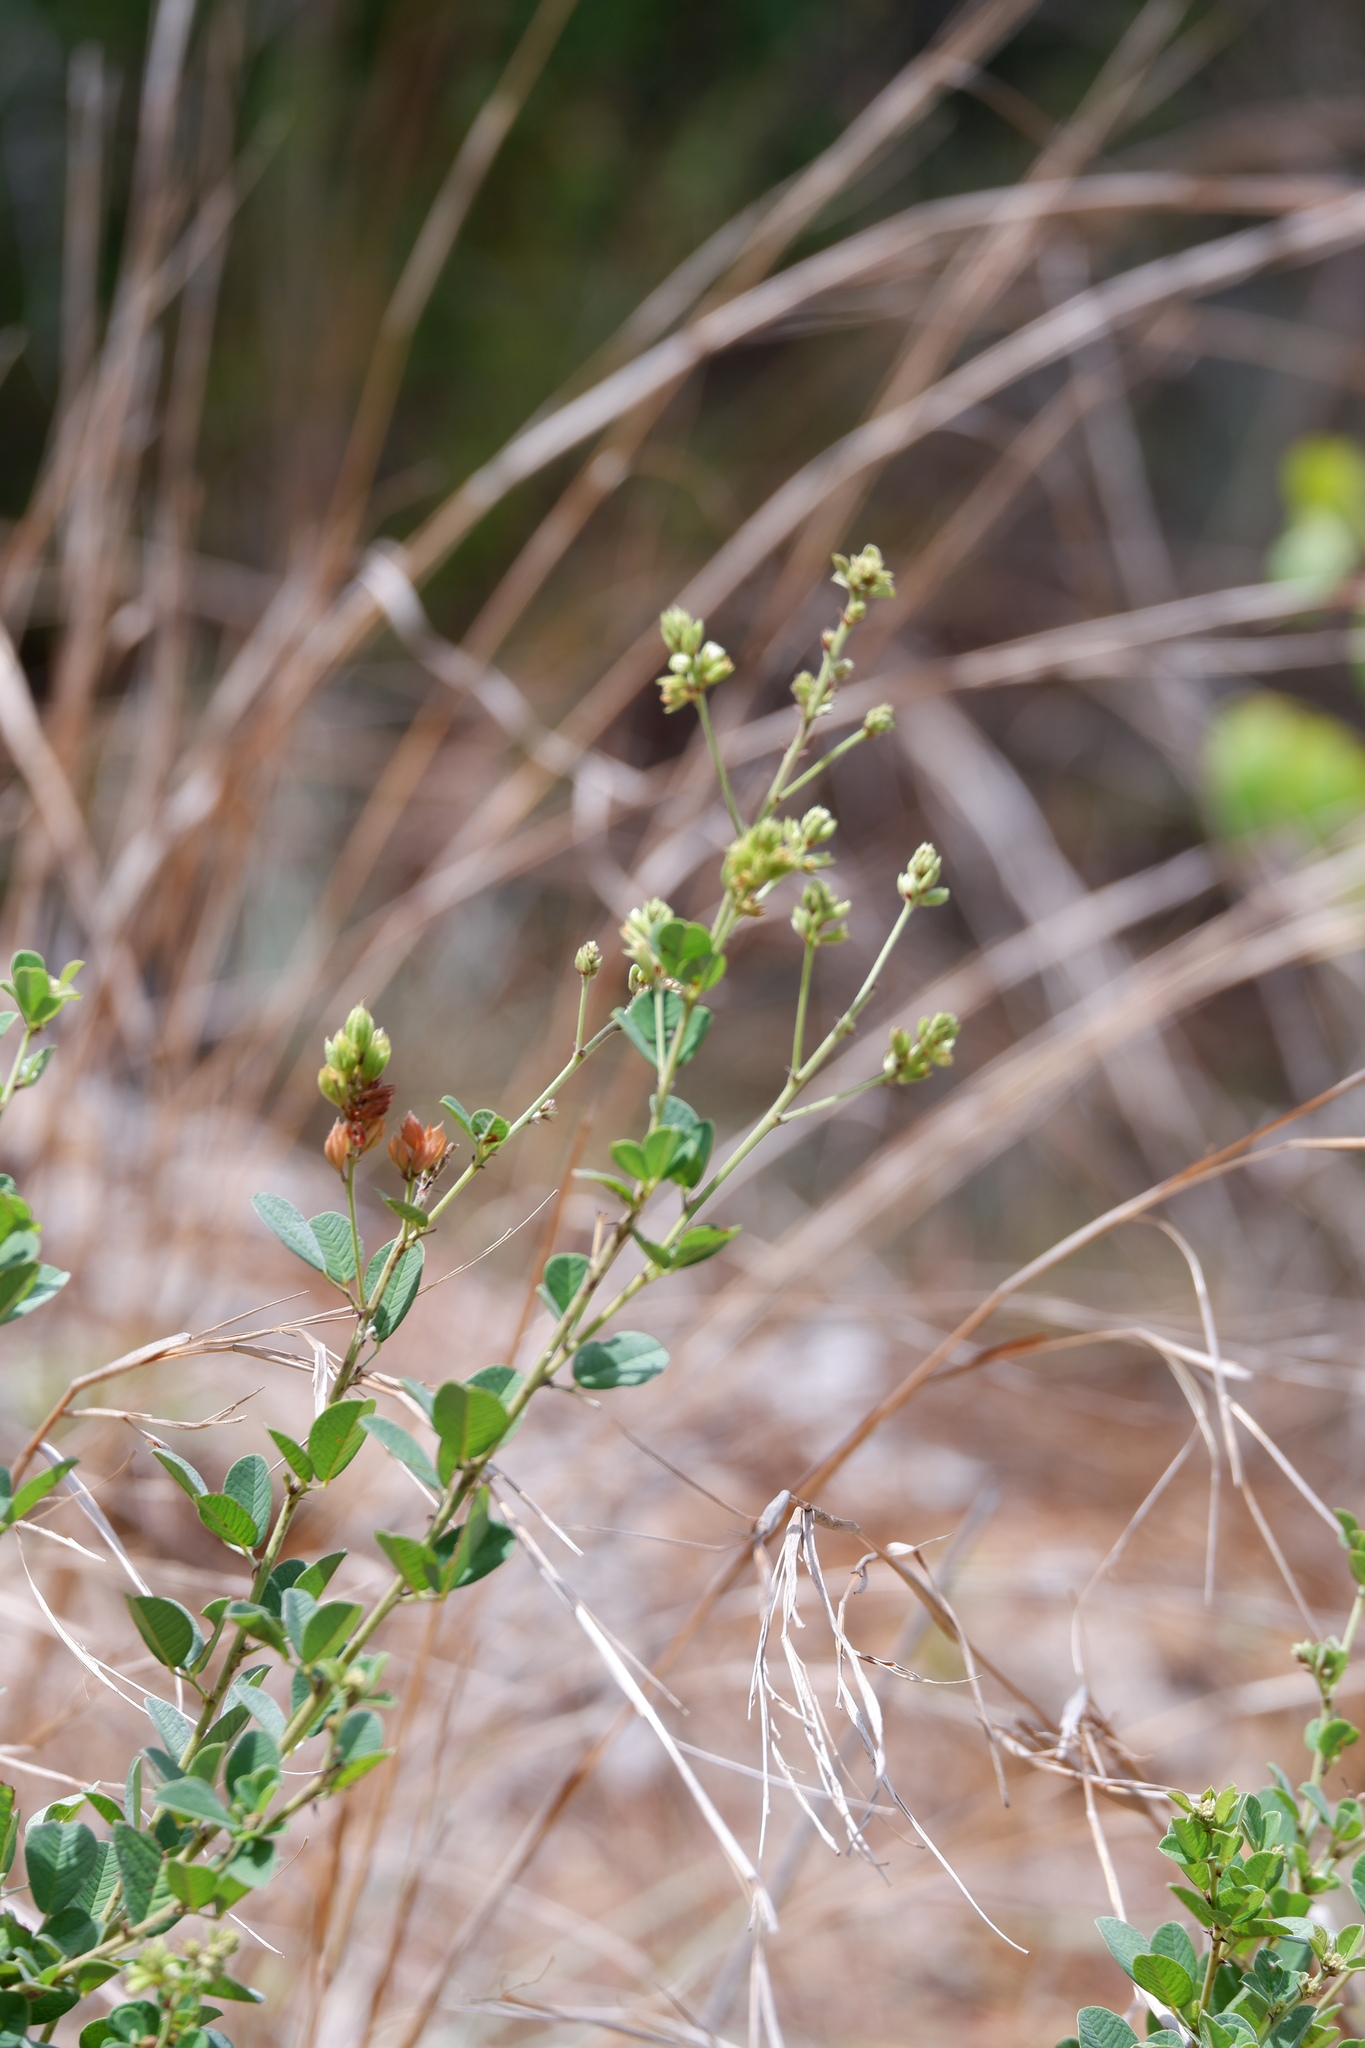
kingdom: Plantae
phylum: Tracheophyta
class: Magnoliopsida
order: Fabales
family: Fabaceae
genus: Lespedeza
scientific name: Lespedeza hirta
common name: Hairy lespedeza
